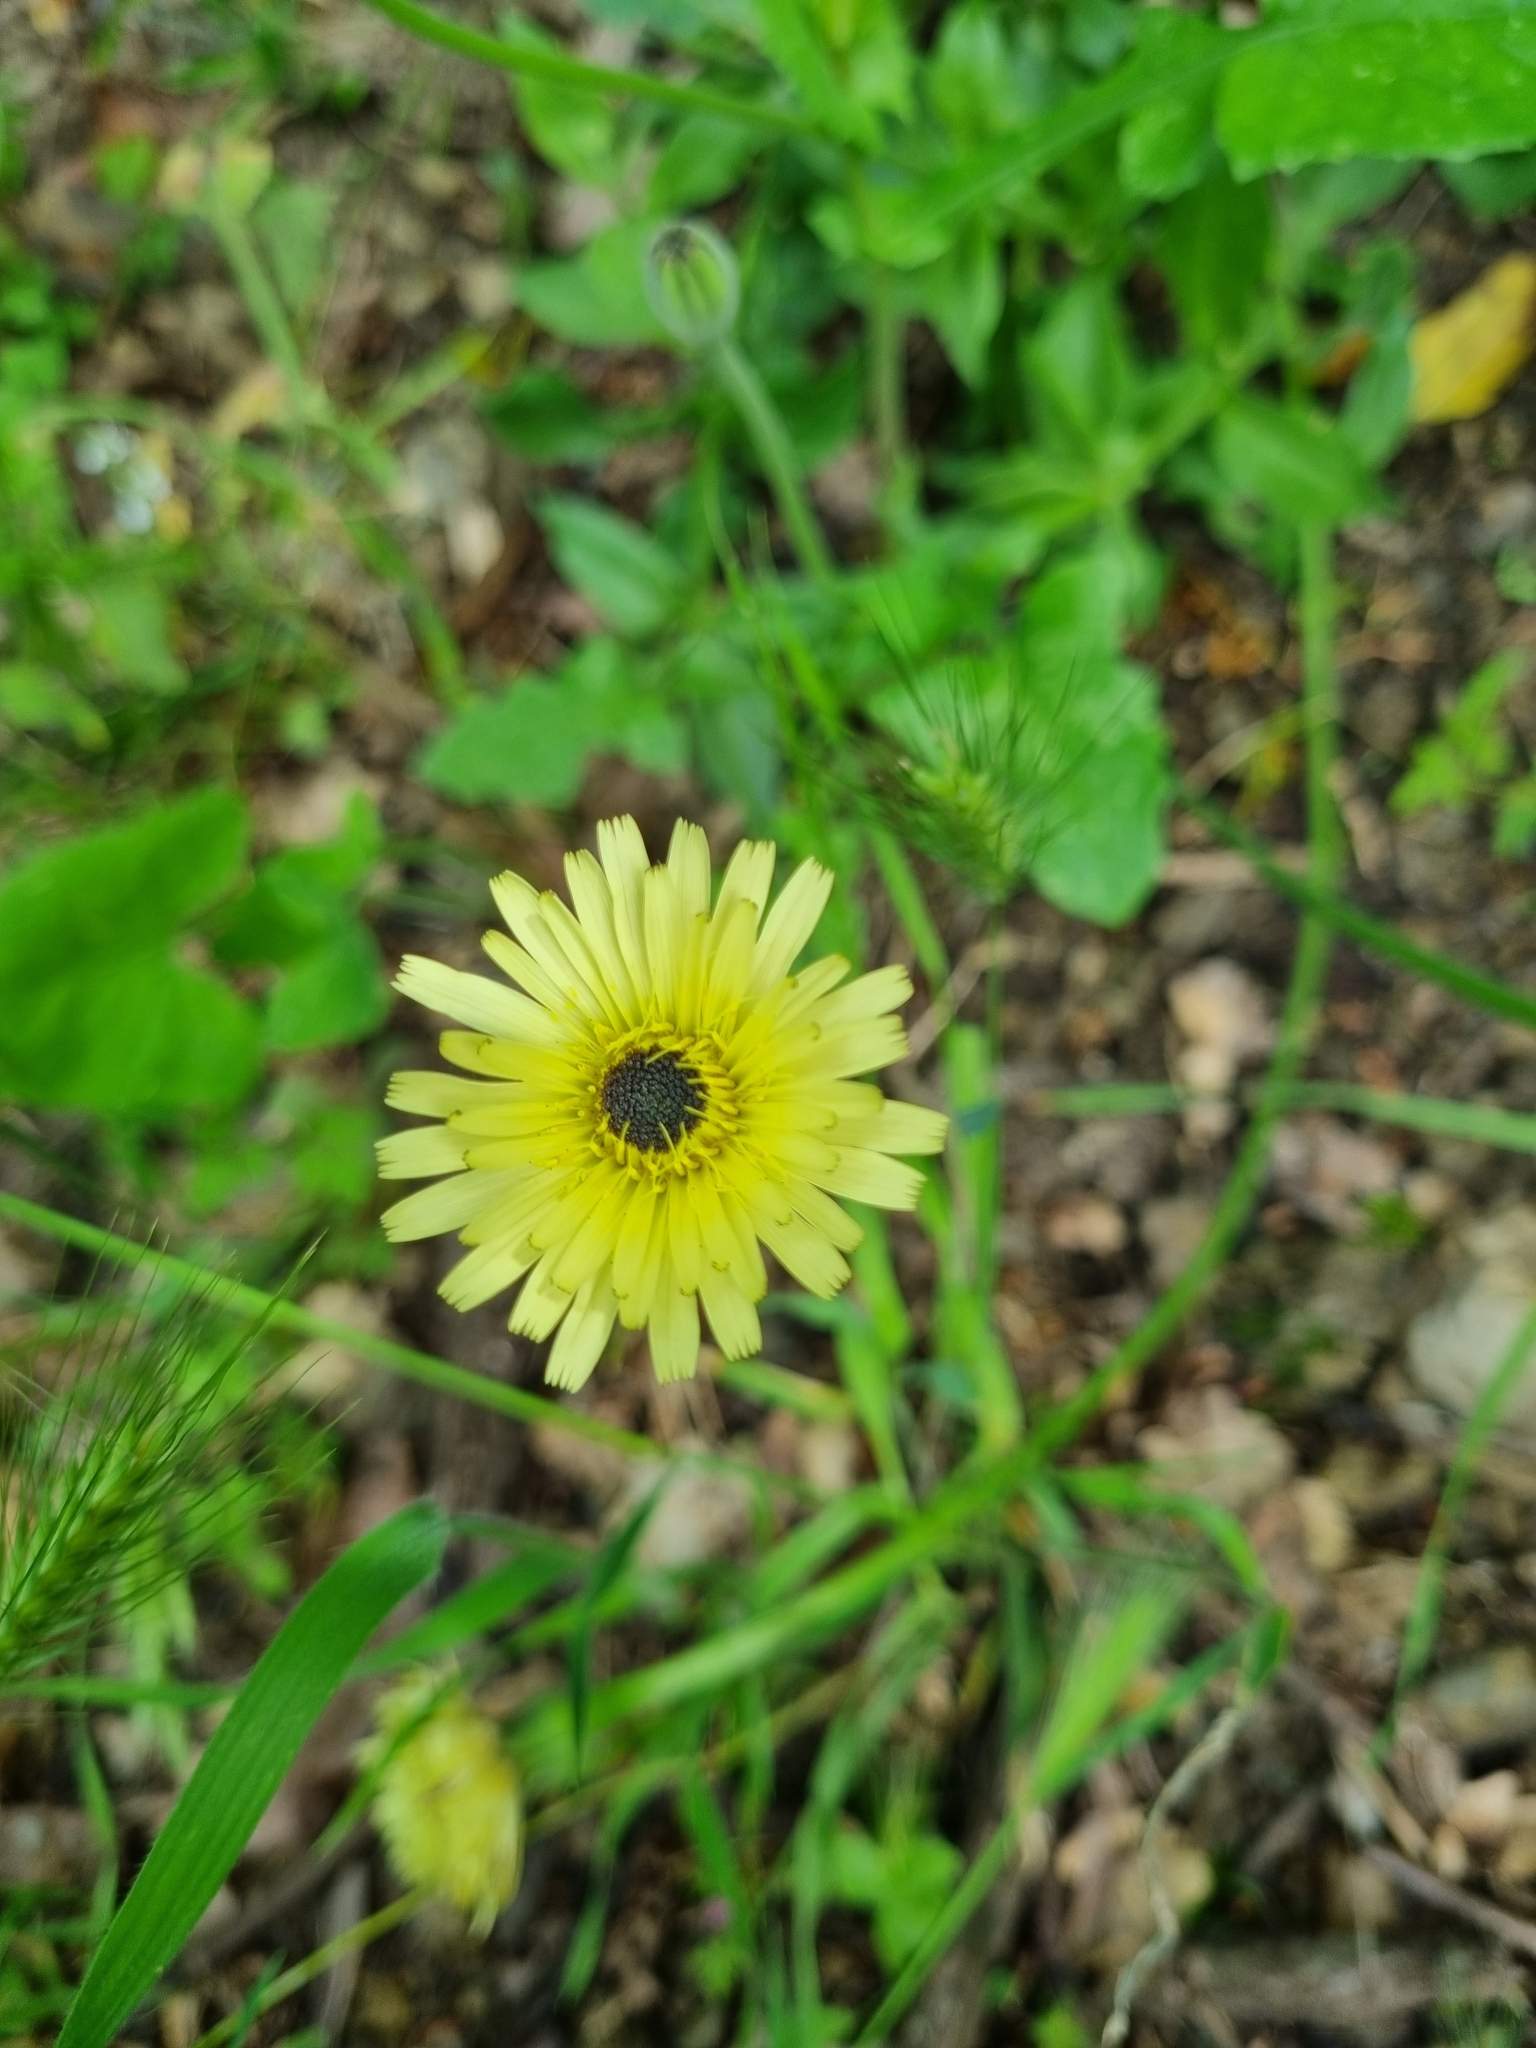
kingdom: Plantae
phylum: Tracheophyta
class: Magnoliopsida
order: Asterales
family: Asteraceae
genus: Urospermum
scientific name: Urospermum dalechampii
